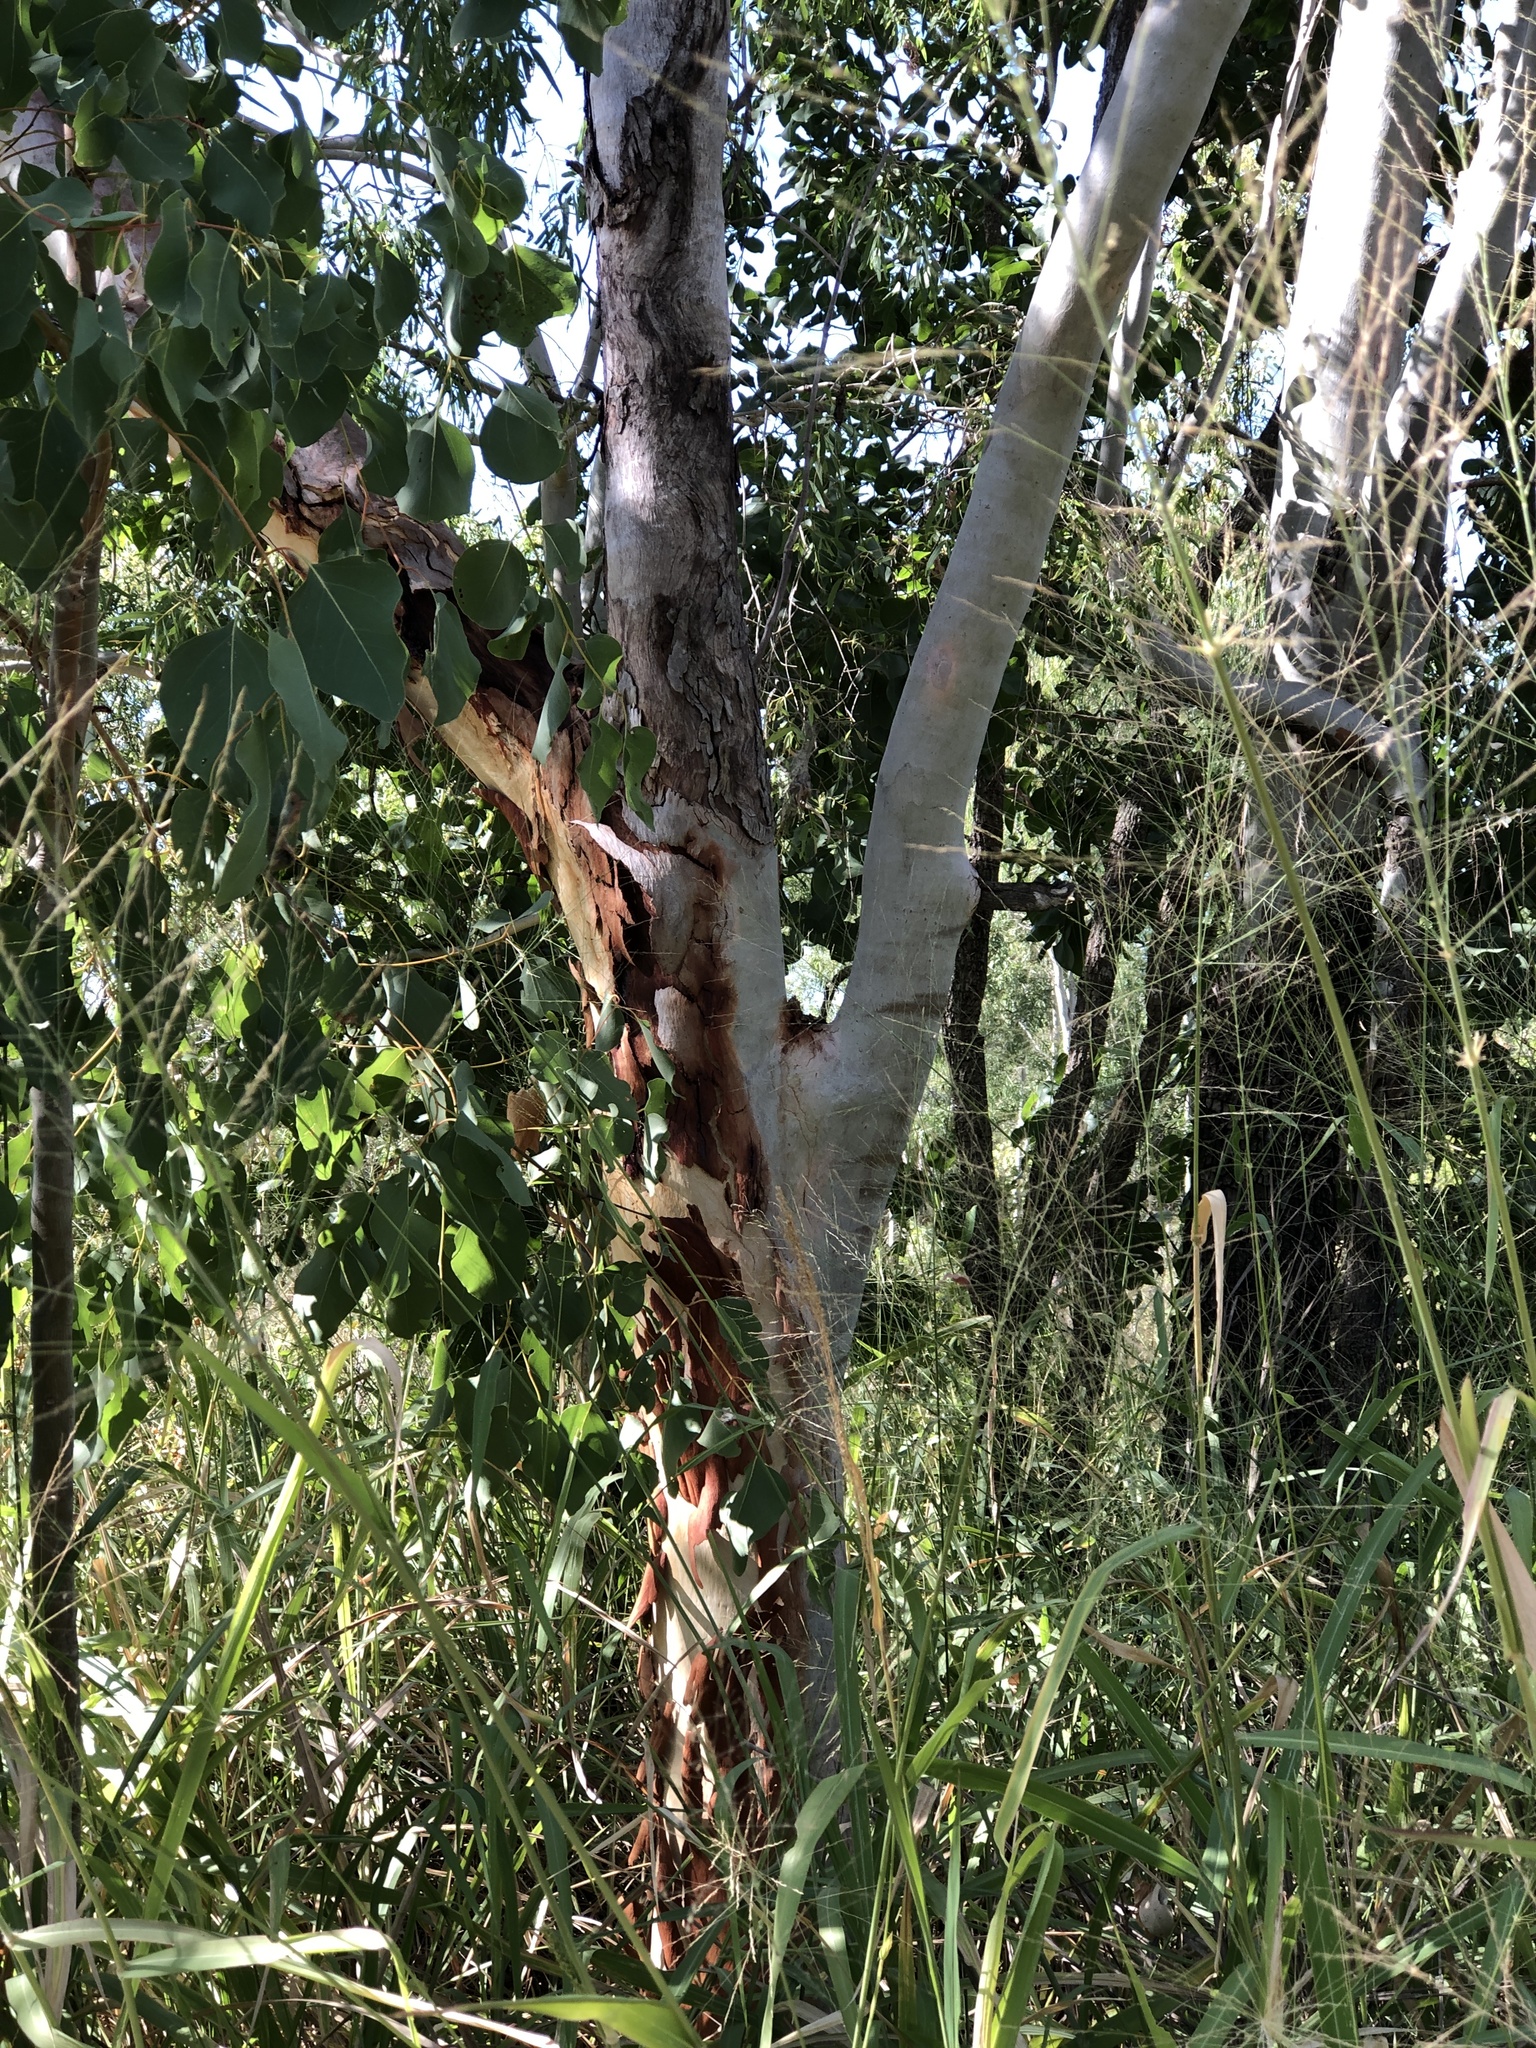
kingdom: Plantae
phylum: Tracheophyta
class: Magnoliopsida
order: Myrtales
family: Myrtaceae
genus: Eucalyptus
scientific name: Eucalyptus platyphylla
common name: Poplar-gum
